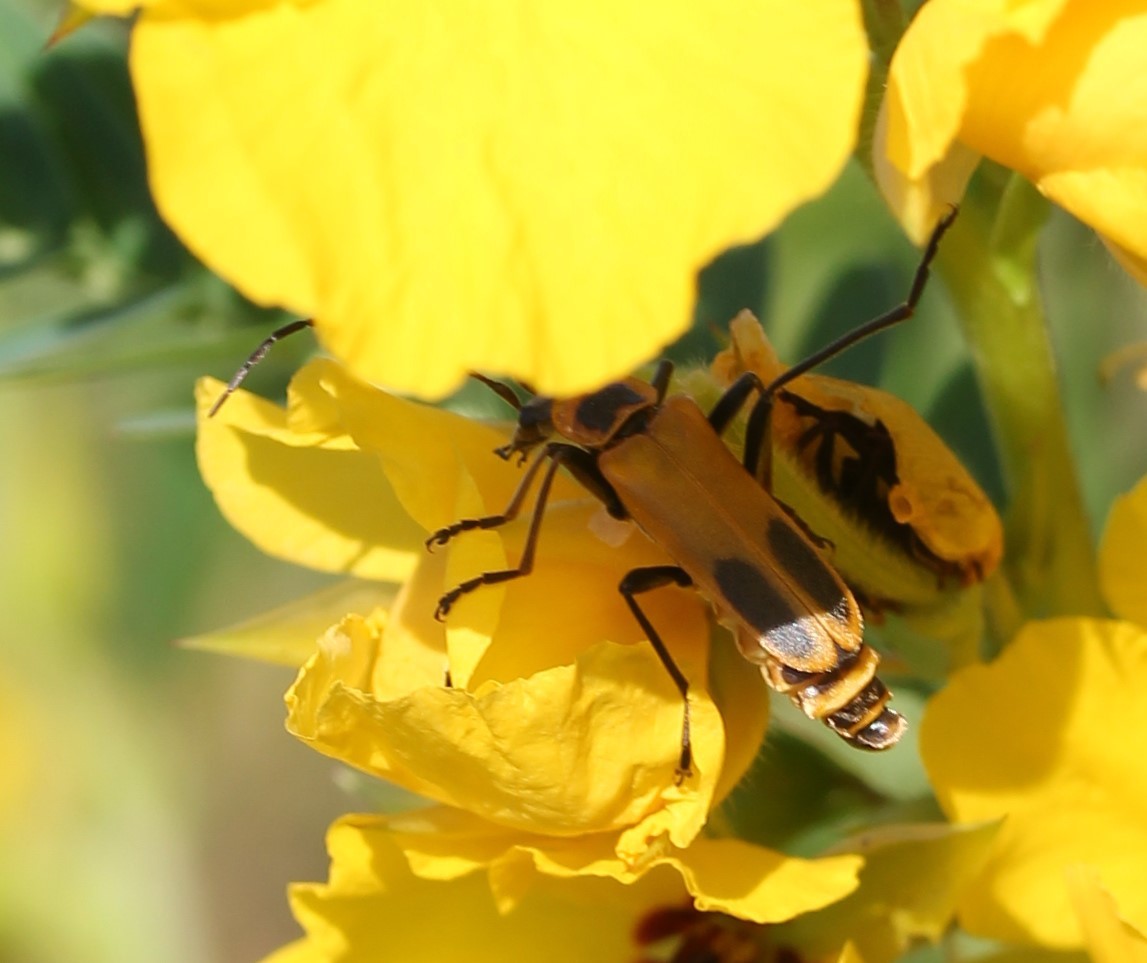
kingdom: Animalia
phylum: Arthropoda
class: Insecta
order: Coleoptera
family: Cantharidae
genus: Chauliognathus
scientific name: Chauliognathus pensylvanicus
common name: Goldenrod soldier beetle
